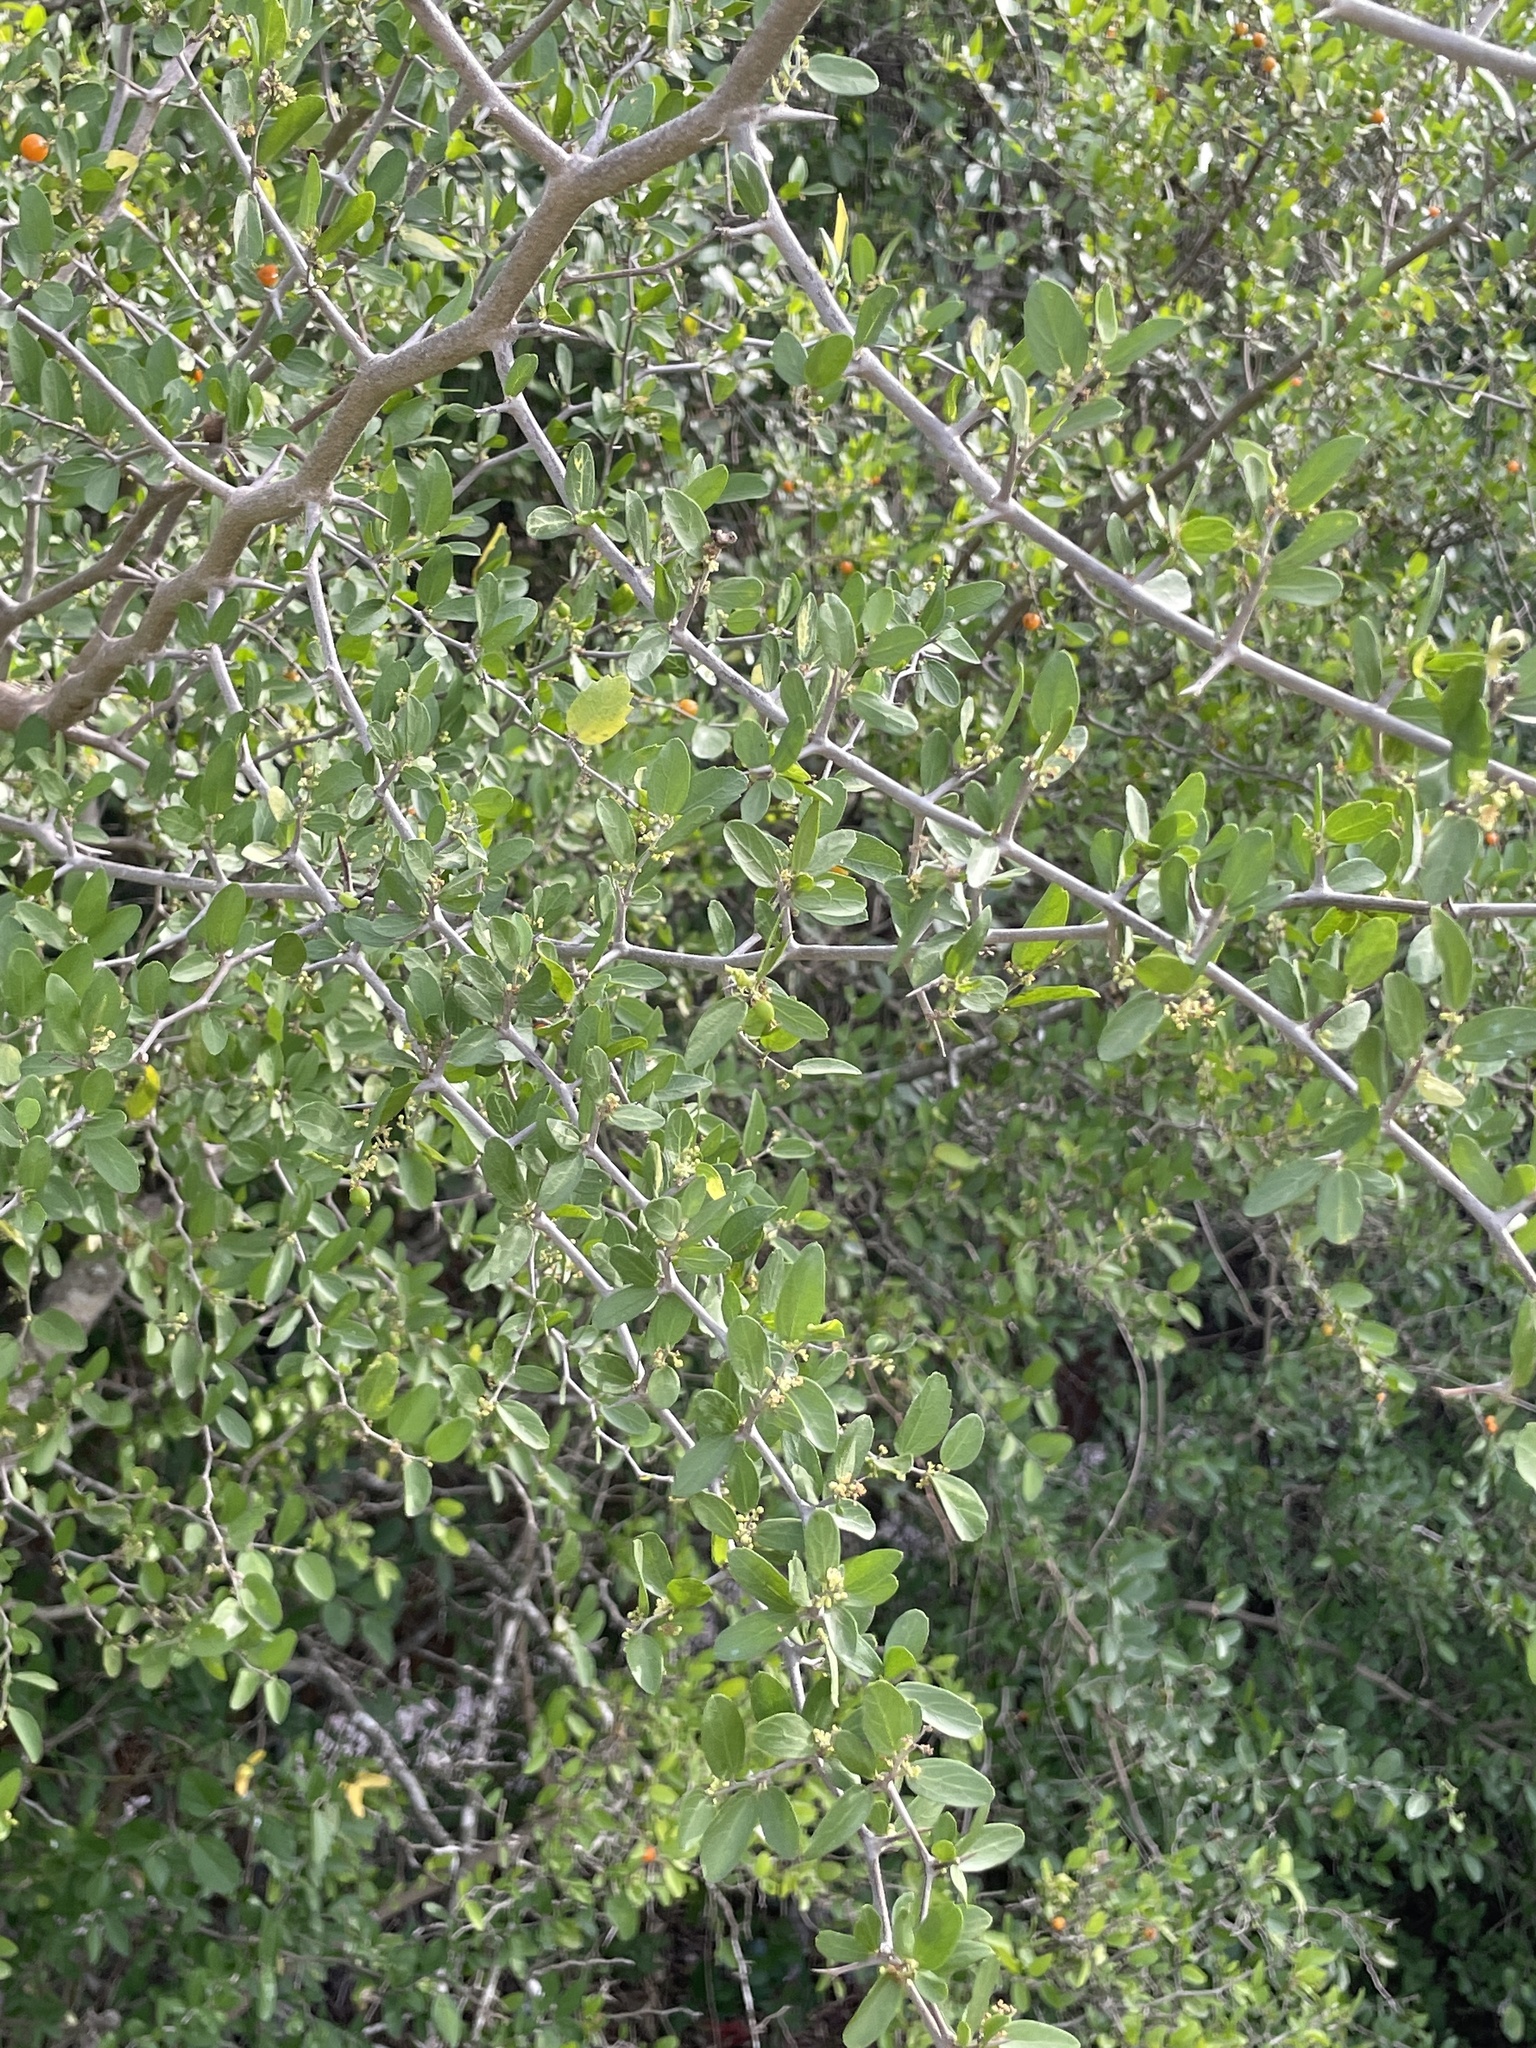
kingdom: Plantae
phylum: Tracheophyta
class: Magnoliopsida
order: Rosales
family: Cannabaceae
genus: Celtis
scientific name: Celtis pallida
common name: Desert hackberry
